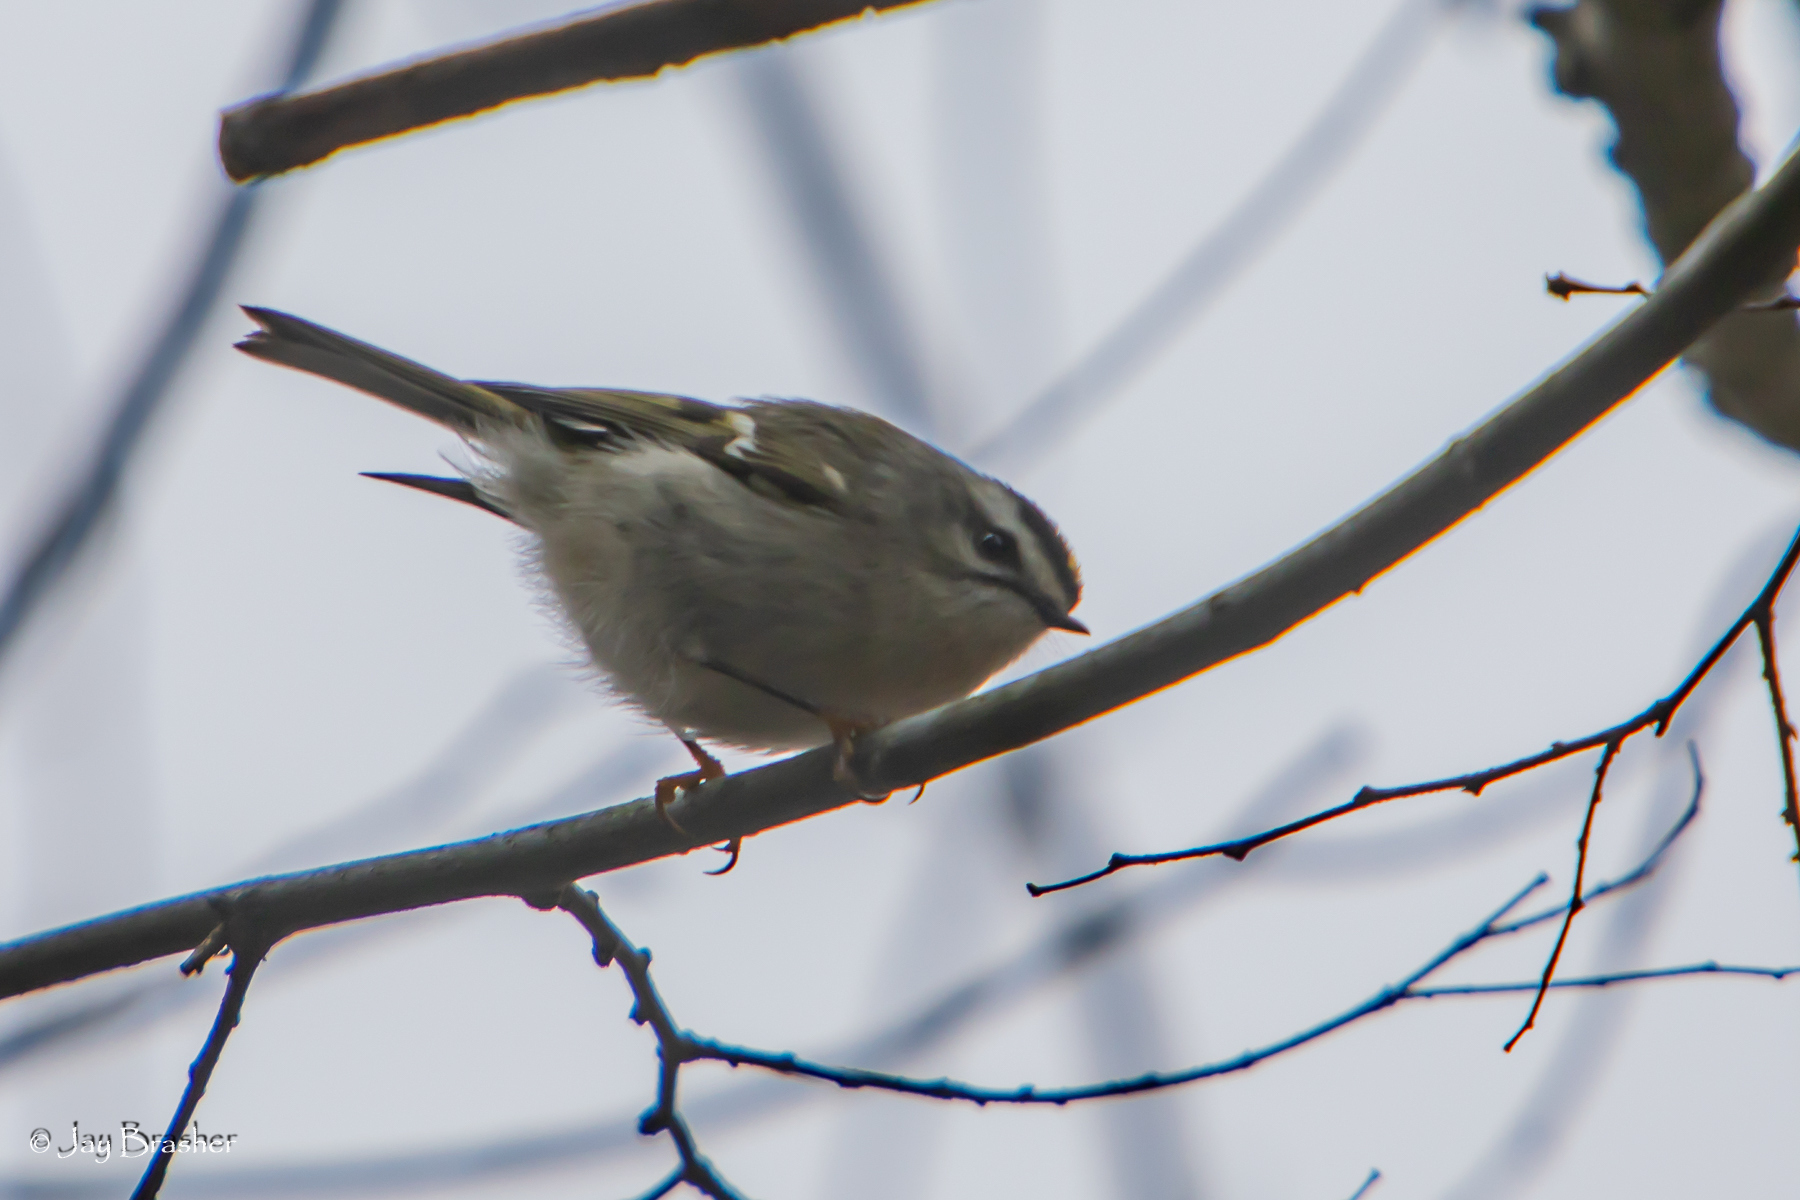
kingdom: Animalia
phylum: Chordata
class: Aves
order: Passeriformes
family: Regulidae
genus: Regulus
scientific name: Regulus satrapa
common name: Golden-crowned kinglet
